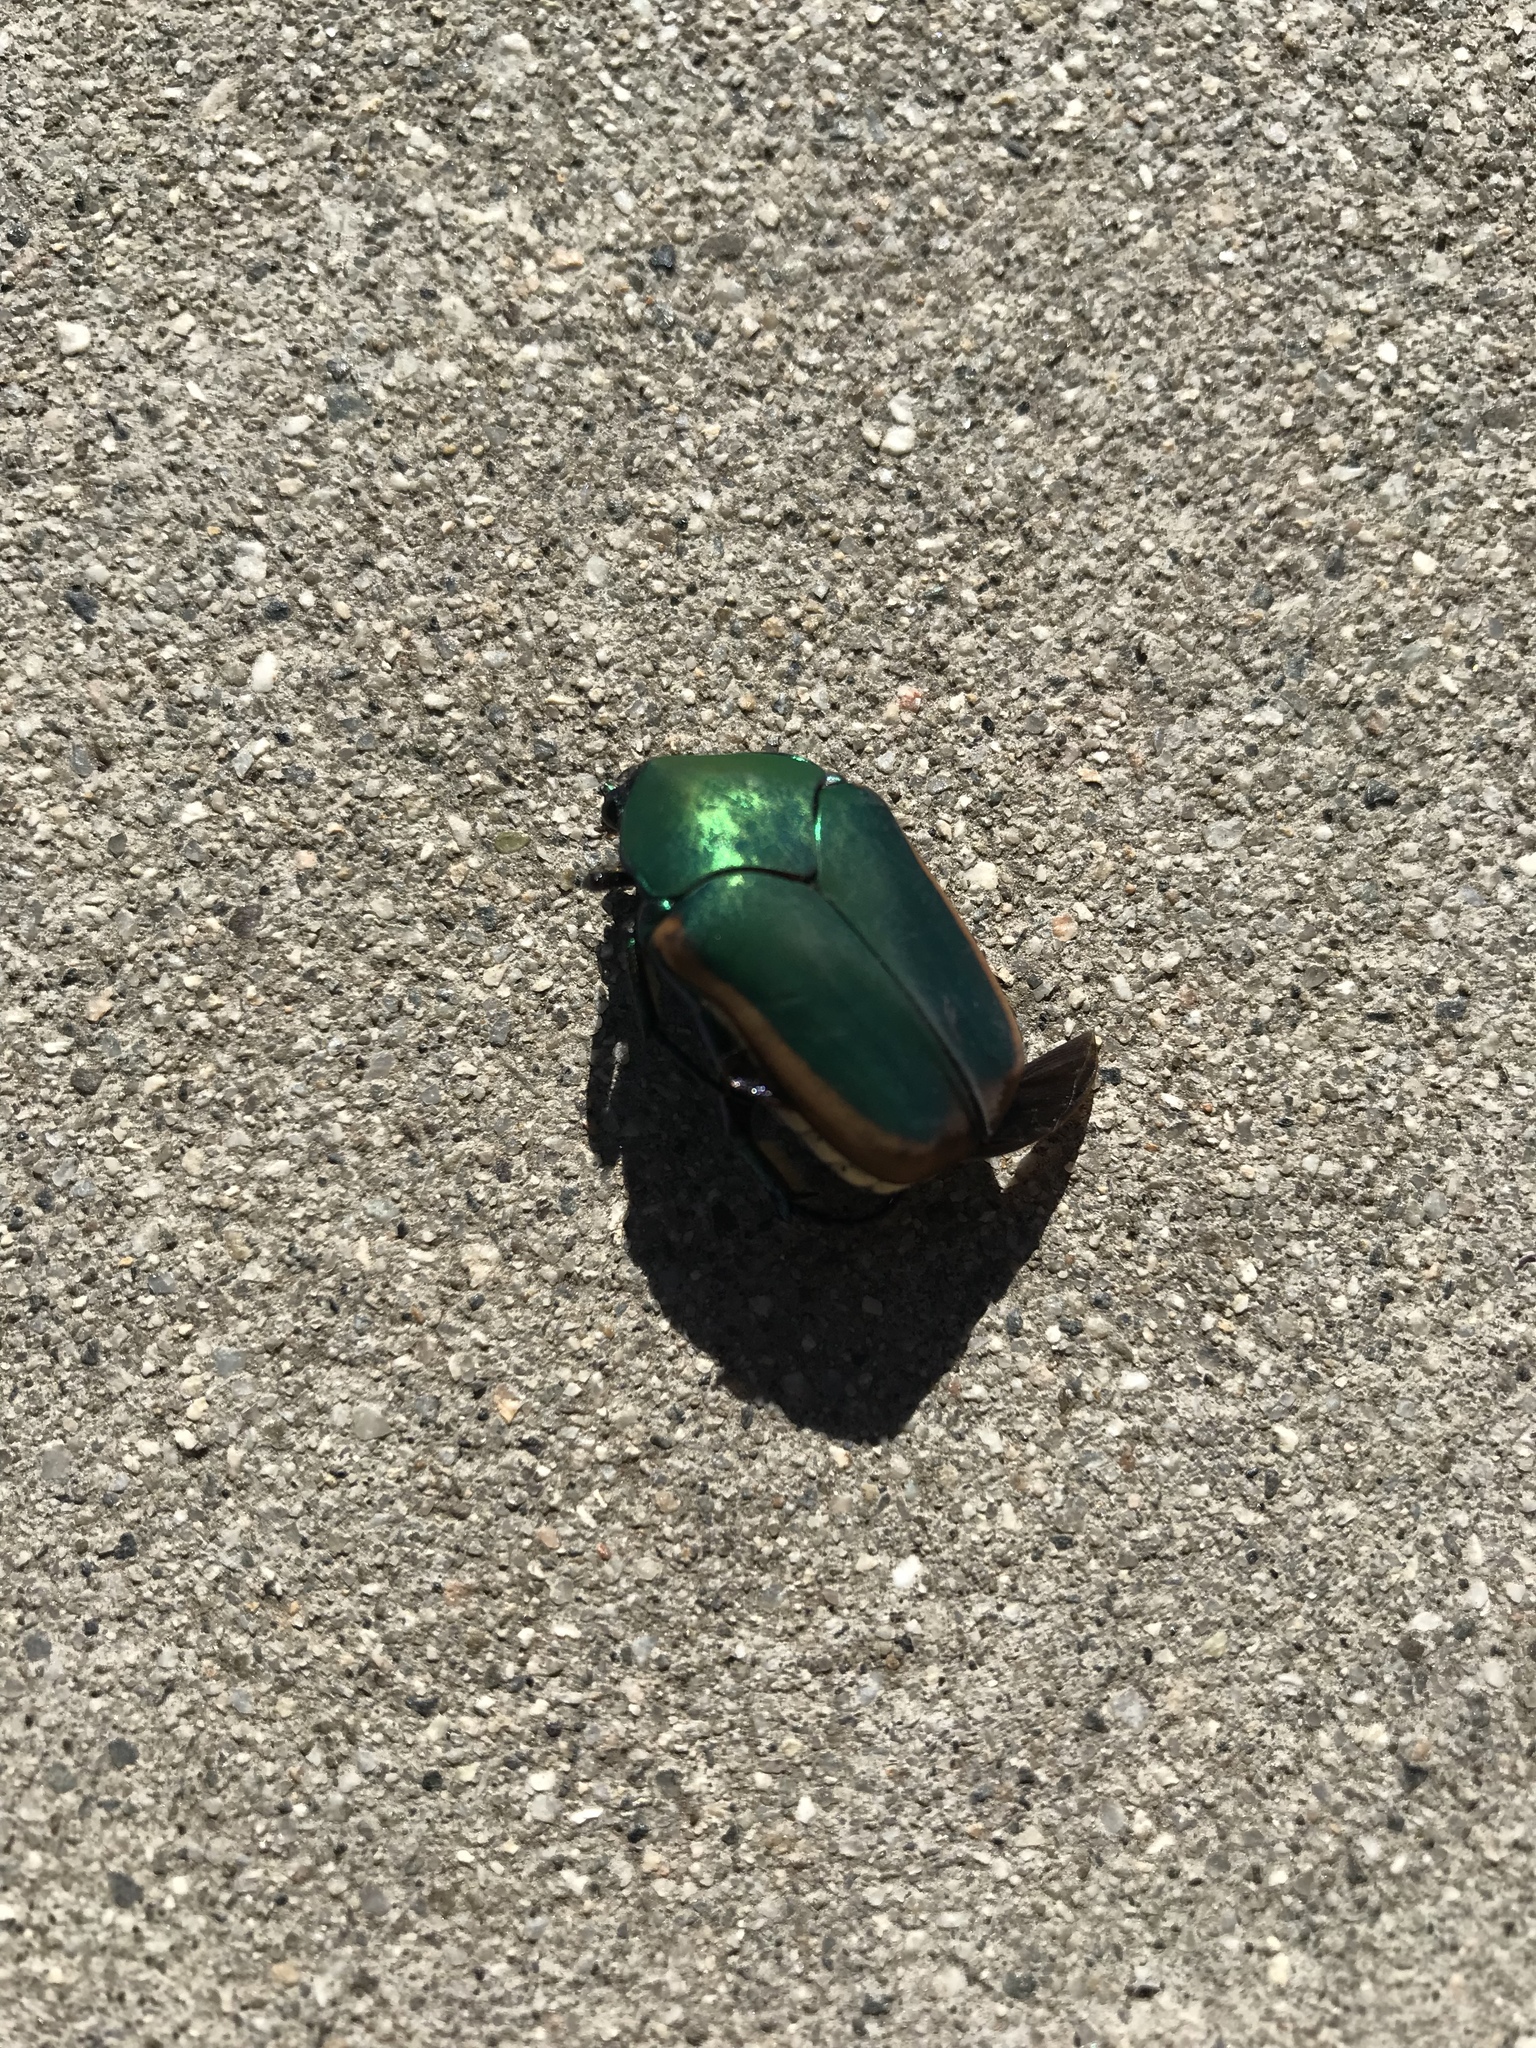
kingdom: Animalia
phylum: Arthropoda
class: Insecta
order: Coleoptera
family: Scarabaeidae
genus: Cotinis
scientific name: Cotinis mutabilis
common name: Figeater beetle
